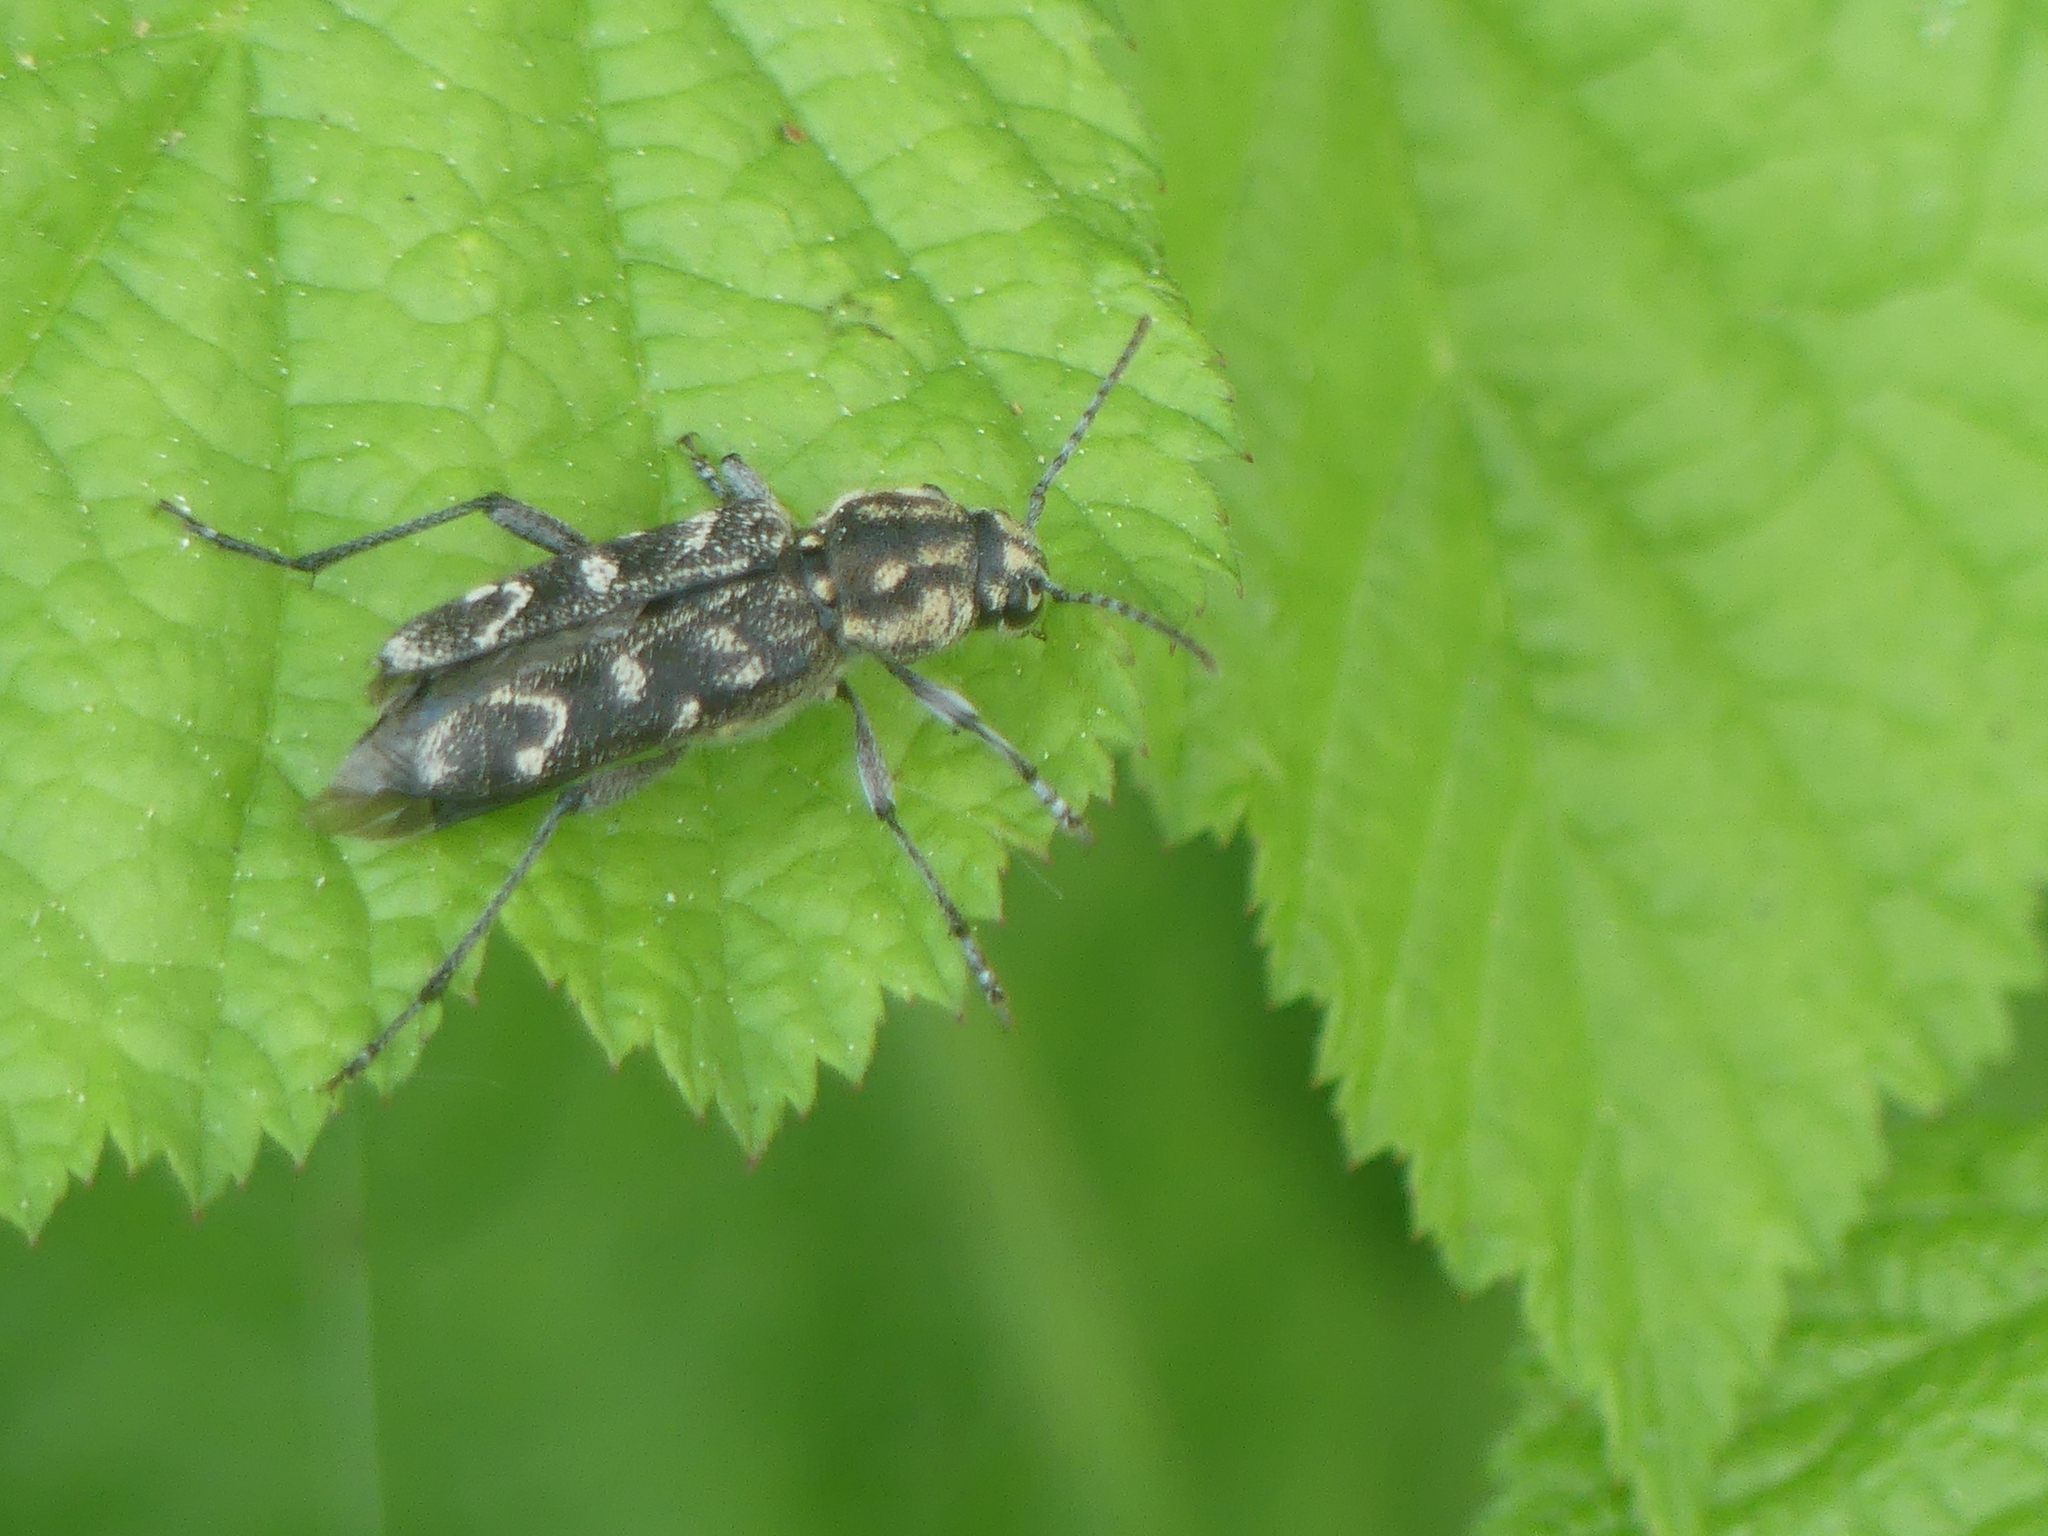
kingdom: Animalia
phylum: Arthropoda
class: Insecta
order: Coleoptera
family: Cerambycidae
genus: Xylotrechus
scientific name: Xylotrechus rusticus
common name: Grey tiger long-horned beetle
